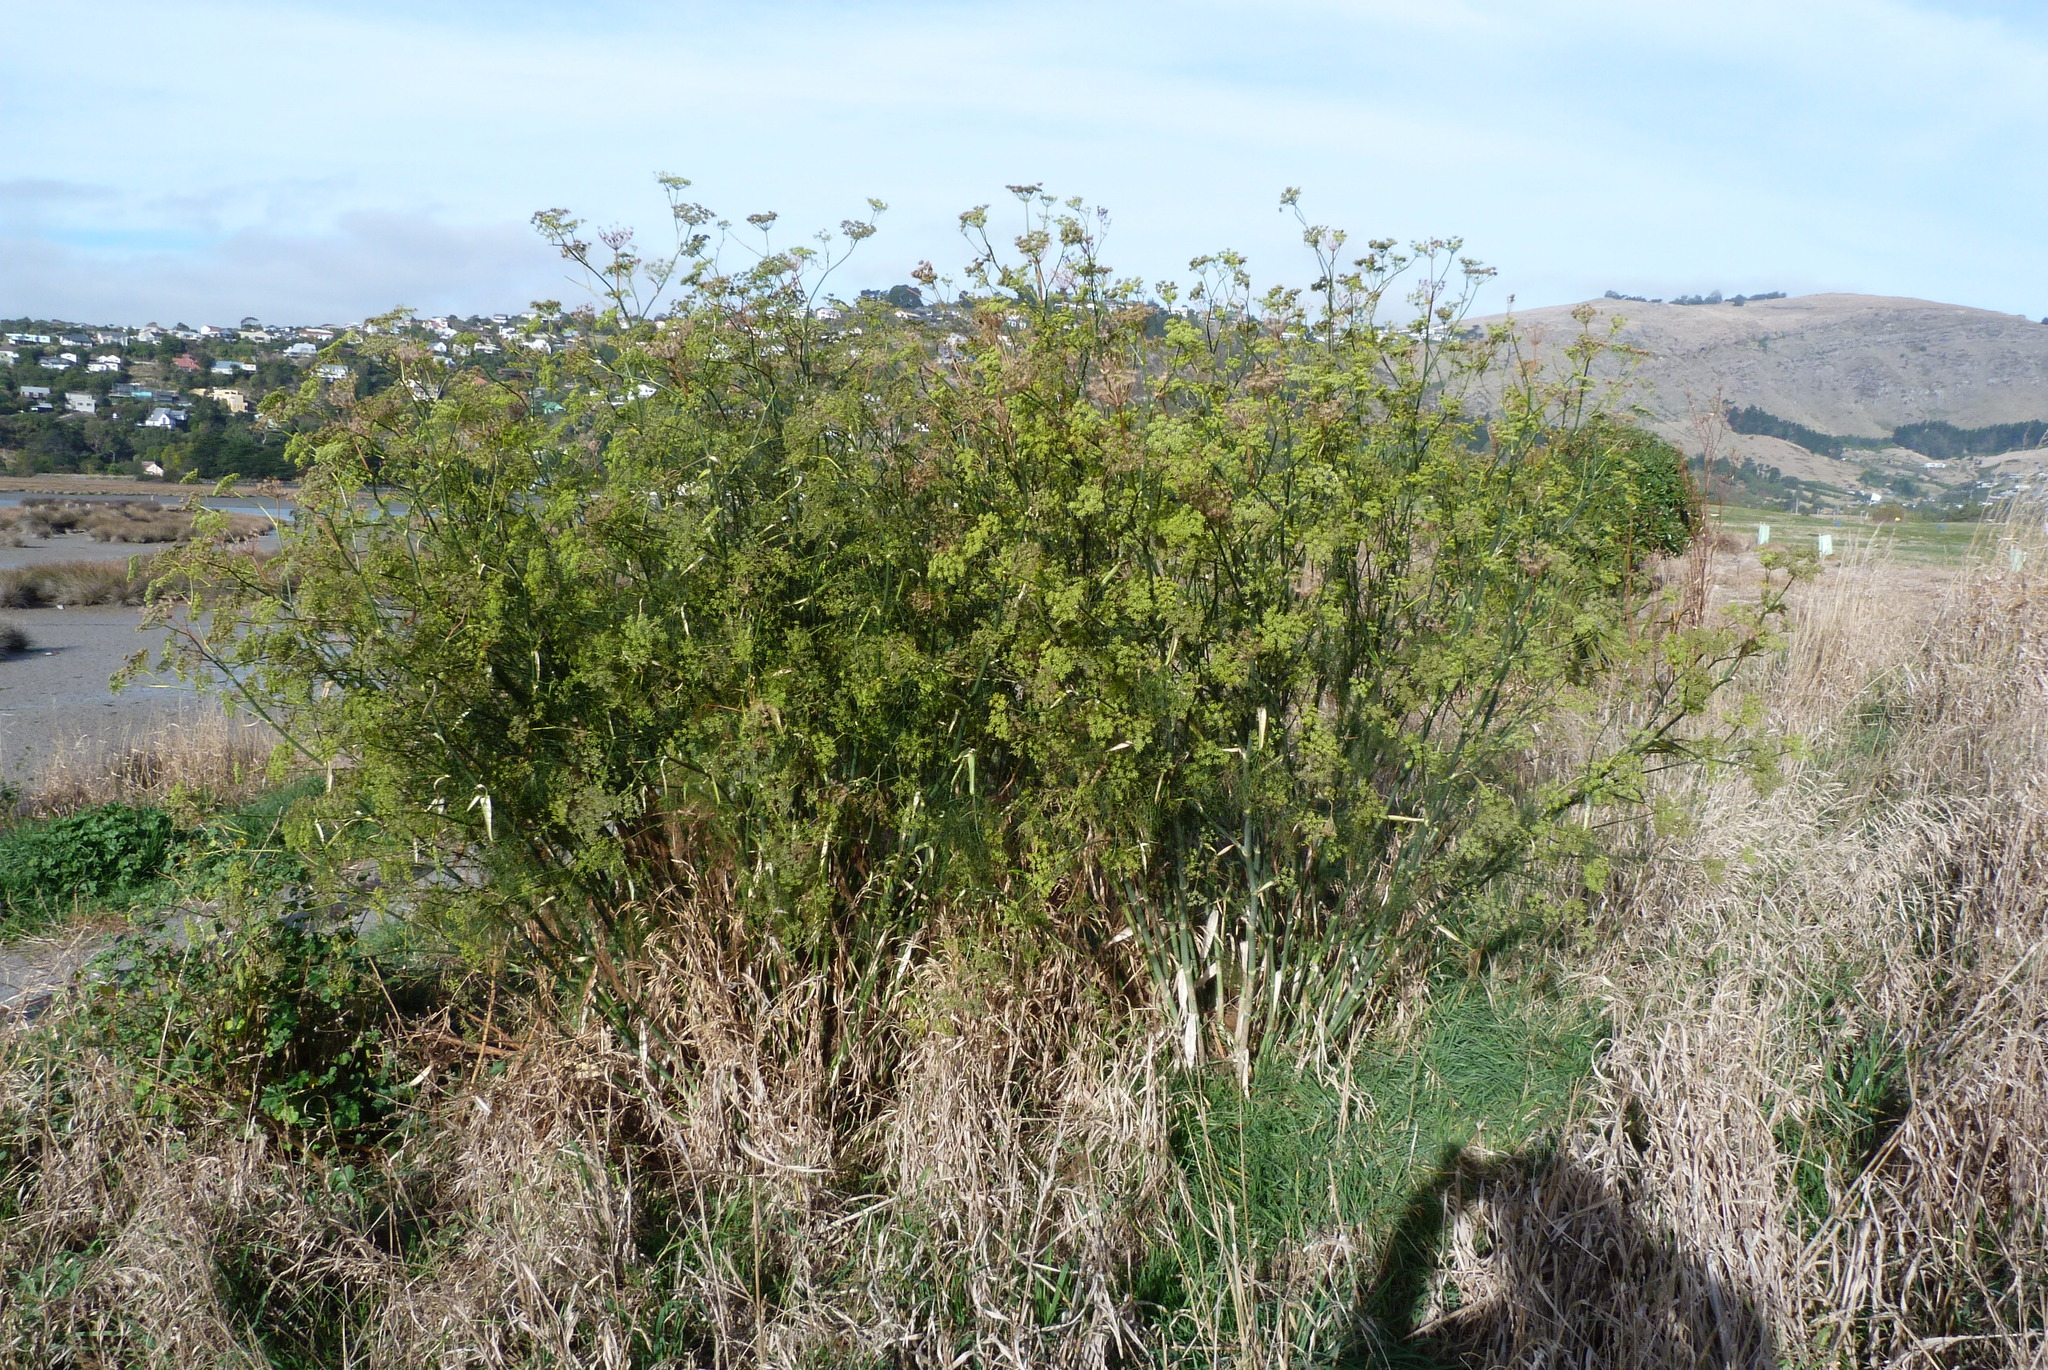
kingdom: Plantae
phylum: Tracheophyta
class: Magnoliopsida
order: Apiales
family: Apiaceae
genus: Foeniculum
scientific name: Foeniculum vulgare
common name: Fennel
